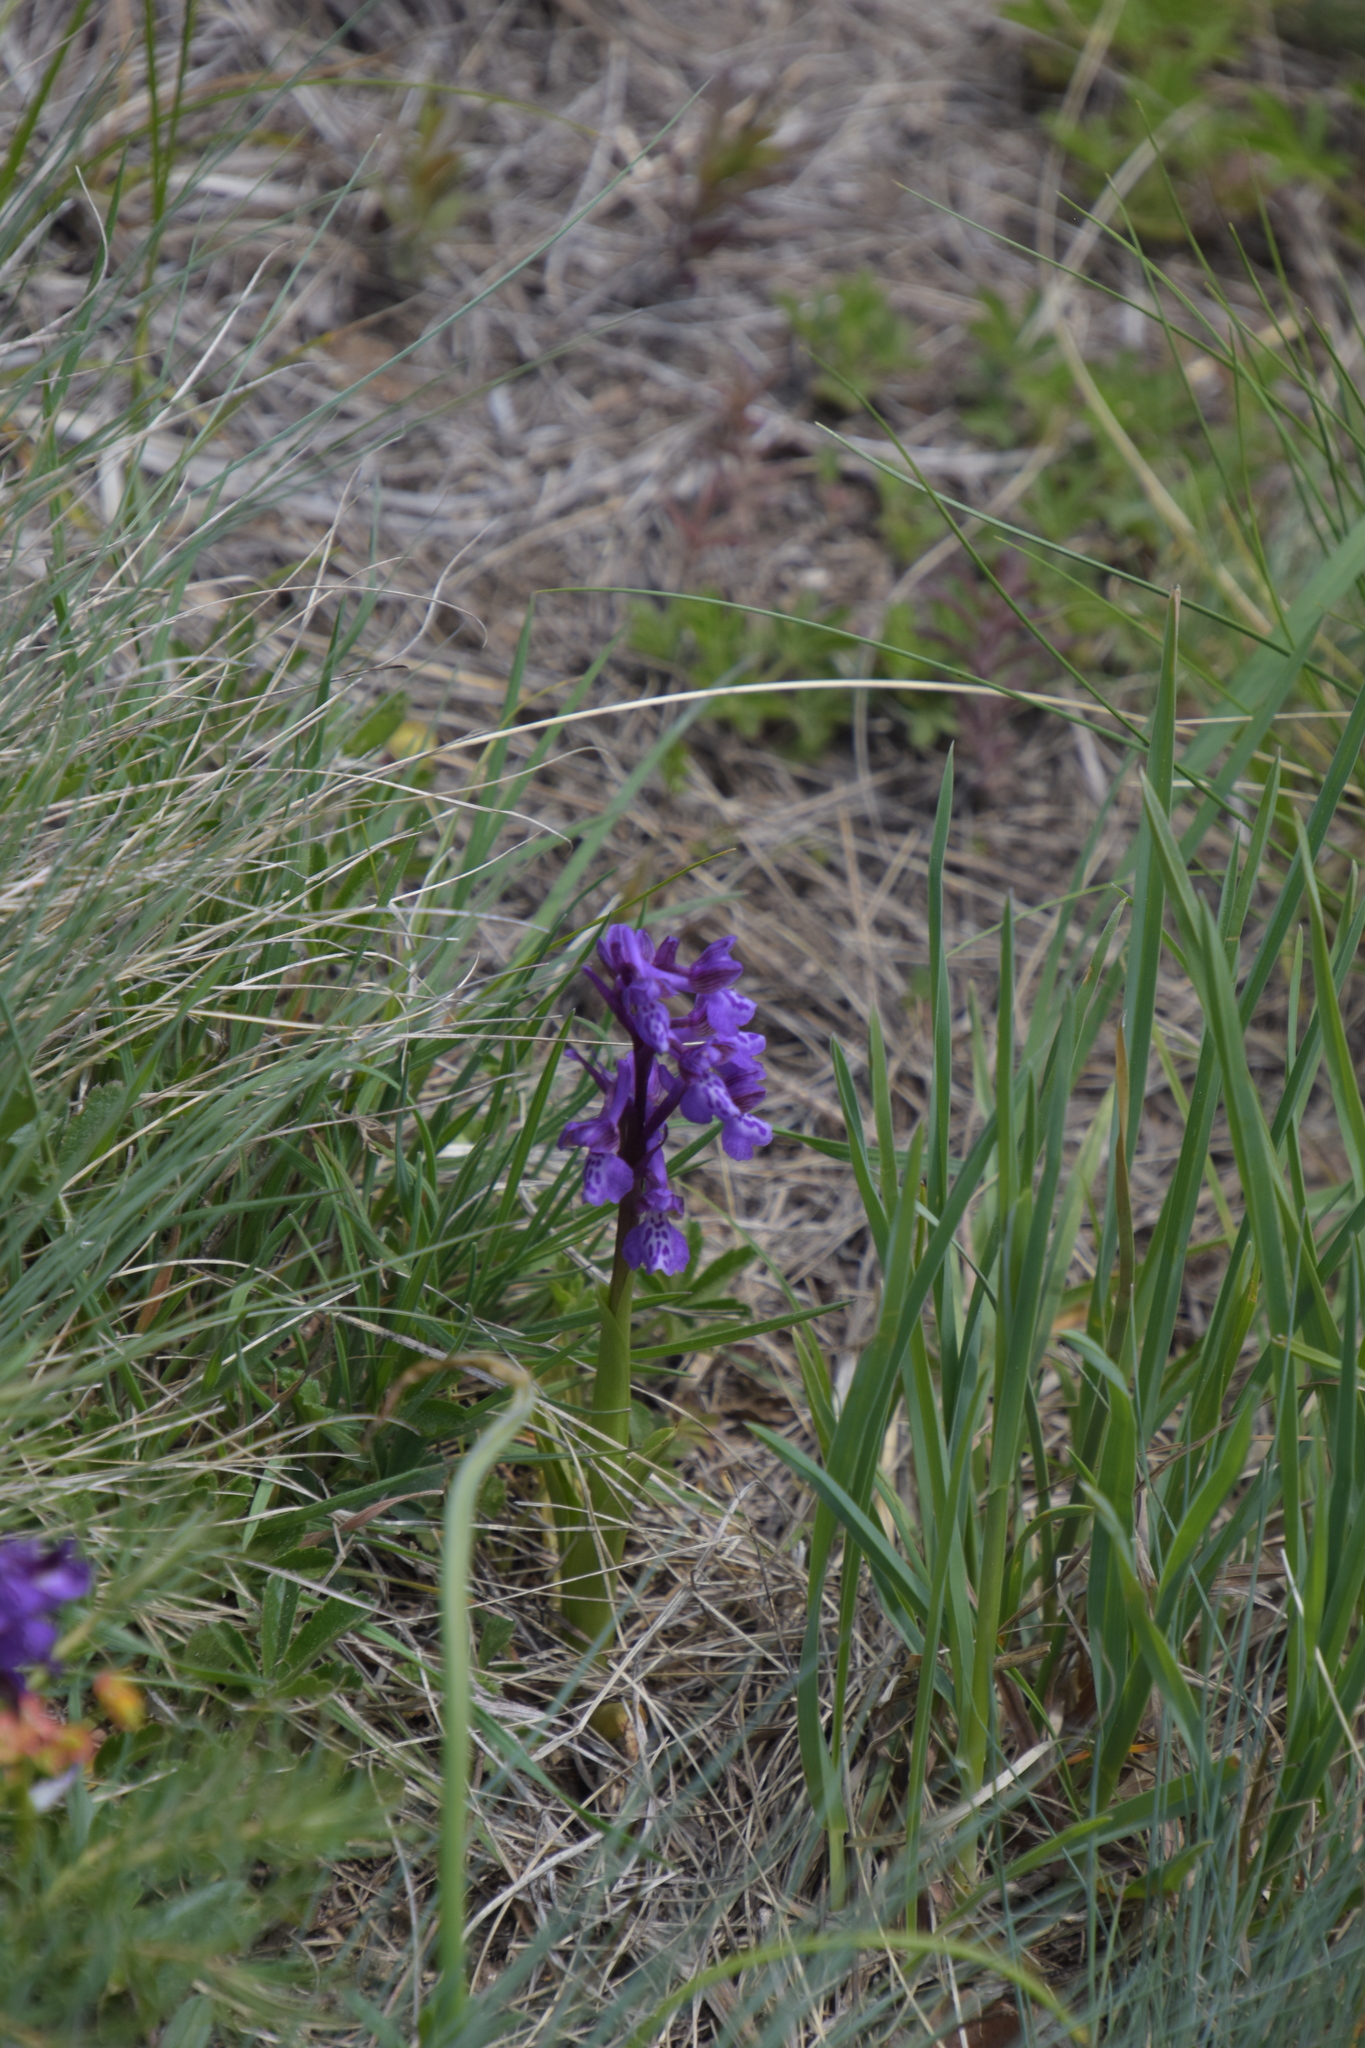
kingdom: Plantae
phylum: Tracheophyta
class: Liliopsida
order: Asparagales
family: Orchidaceae
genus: Anacamptis
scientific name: Anacamptis morio
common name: Green-winged orchid
